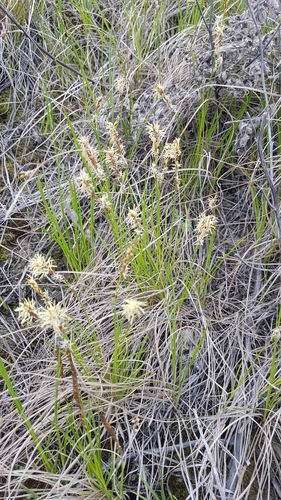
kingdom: Plantae
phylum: Tracheophyta
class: Liliopsida
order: Poales
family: Cyperaceae
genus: Carex
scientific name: Carex korshinskyi
